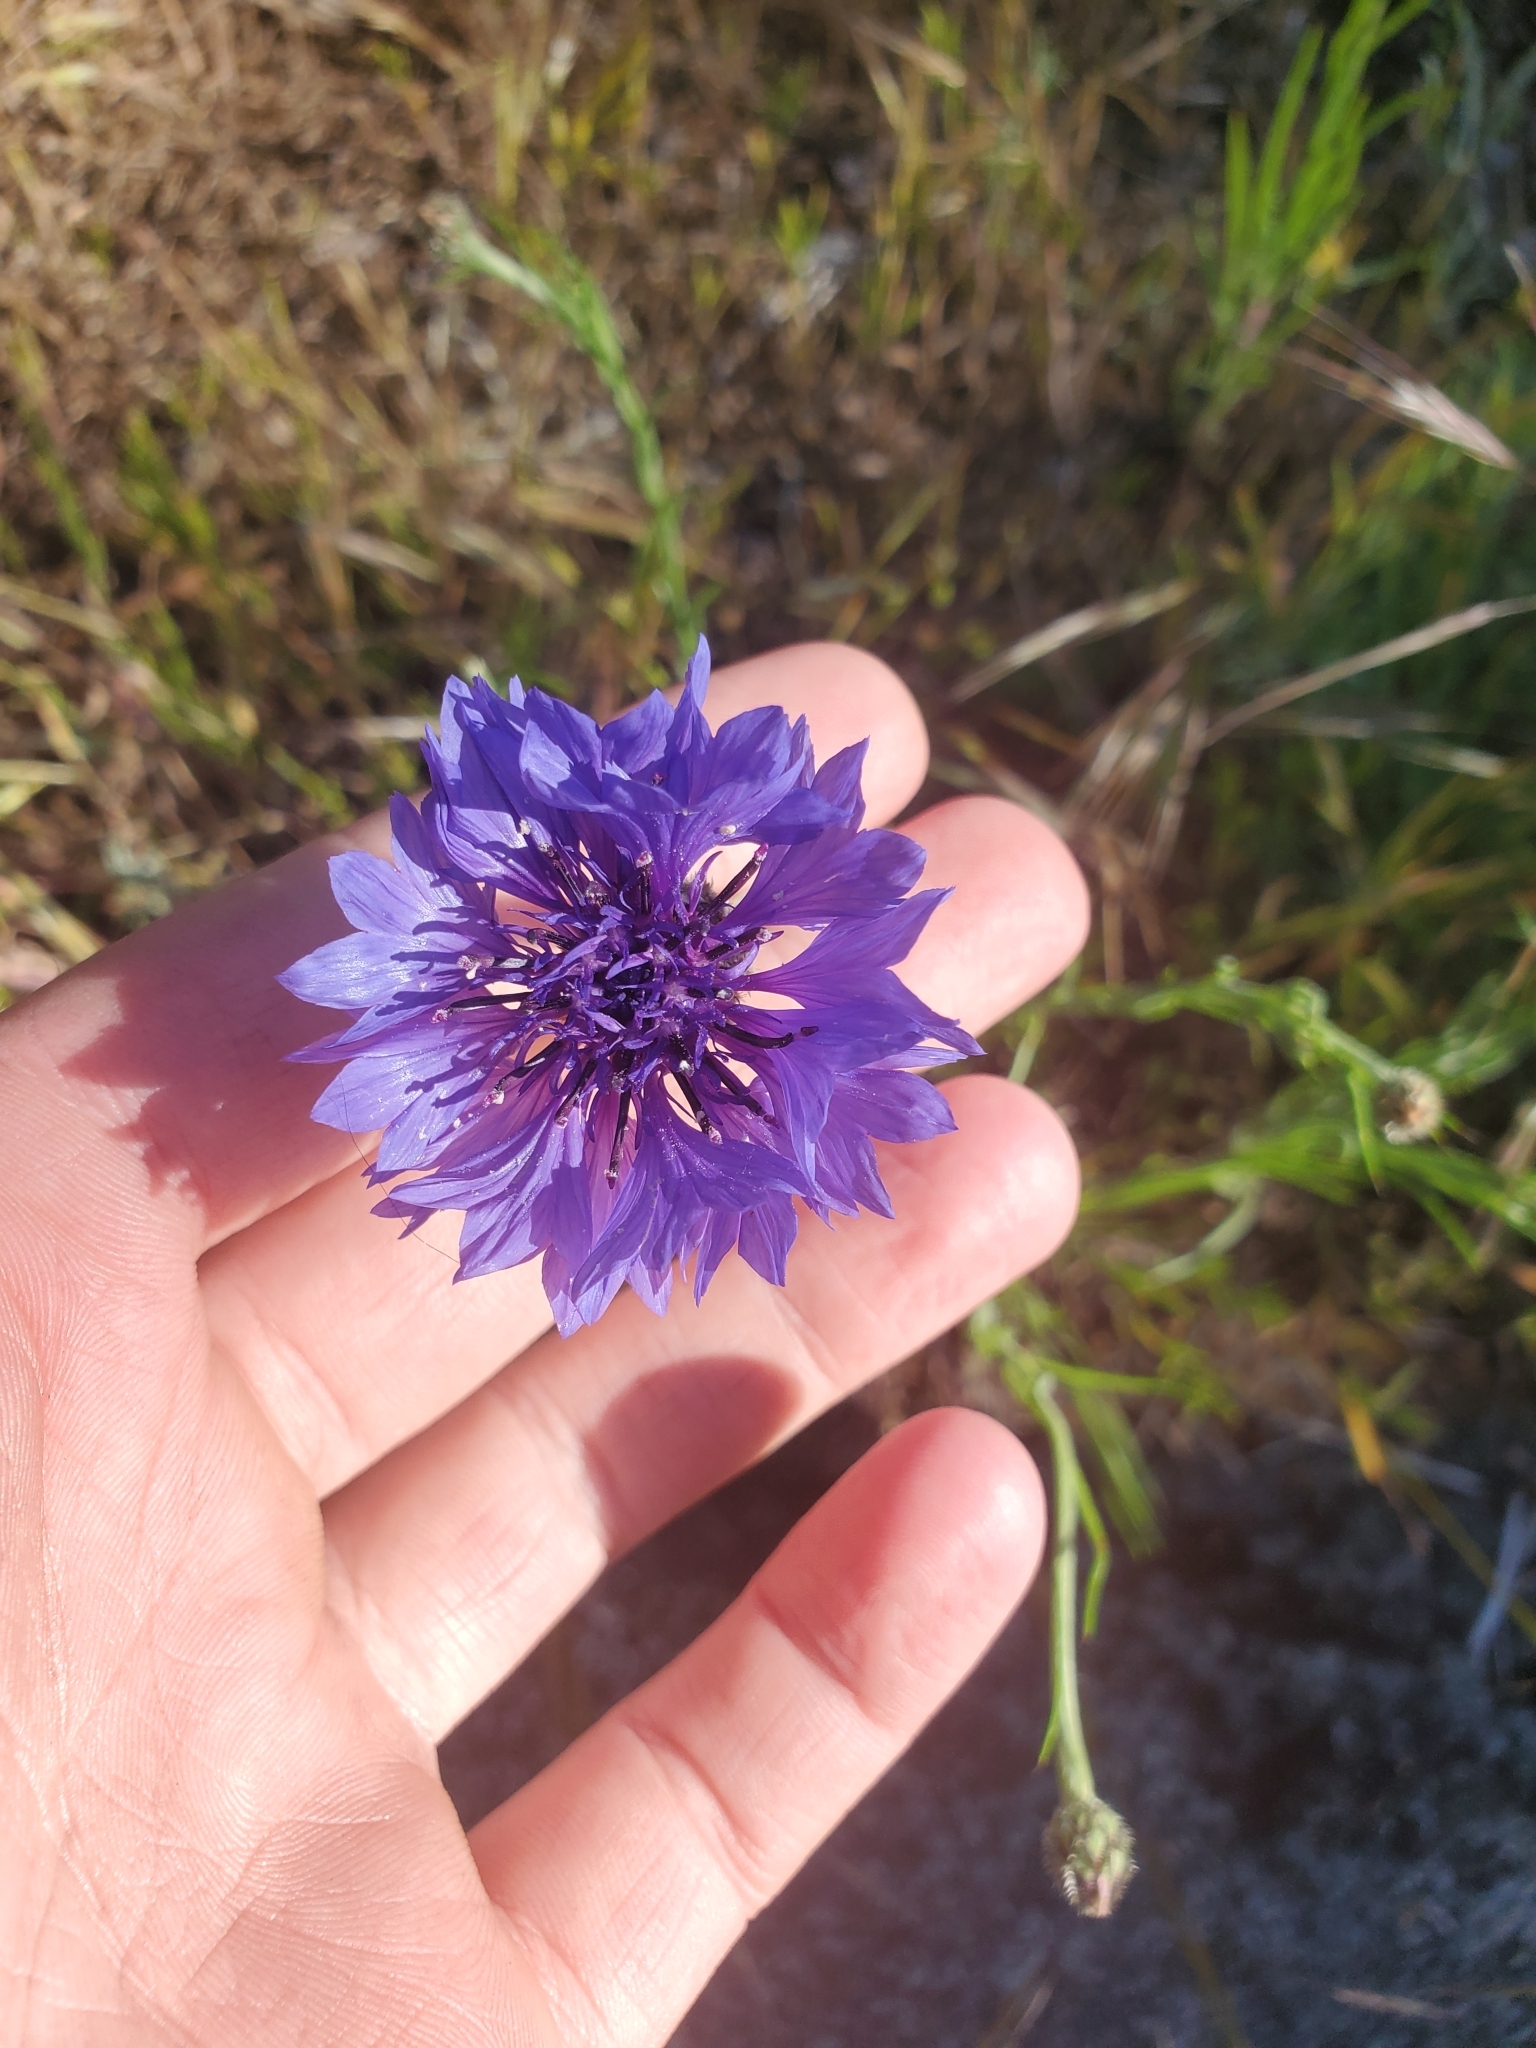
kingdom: Plantae
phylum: Tracheophyta
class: Magnoliopsida
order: Asterales
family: Asteraceae
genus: Centaurea
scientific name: Centaurea cyanus
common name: Cornflower
